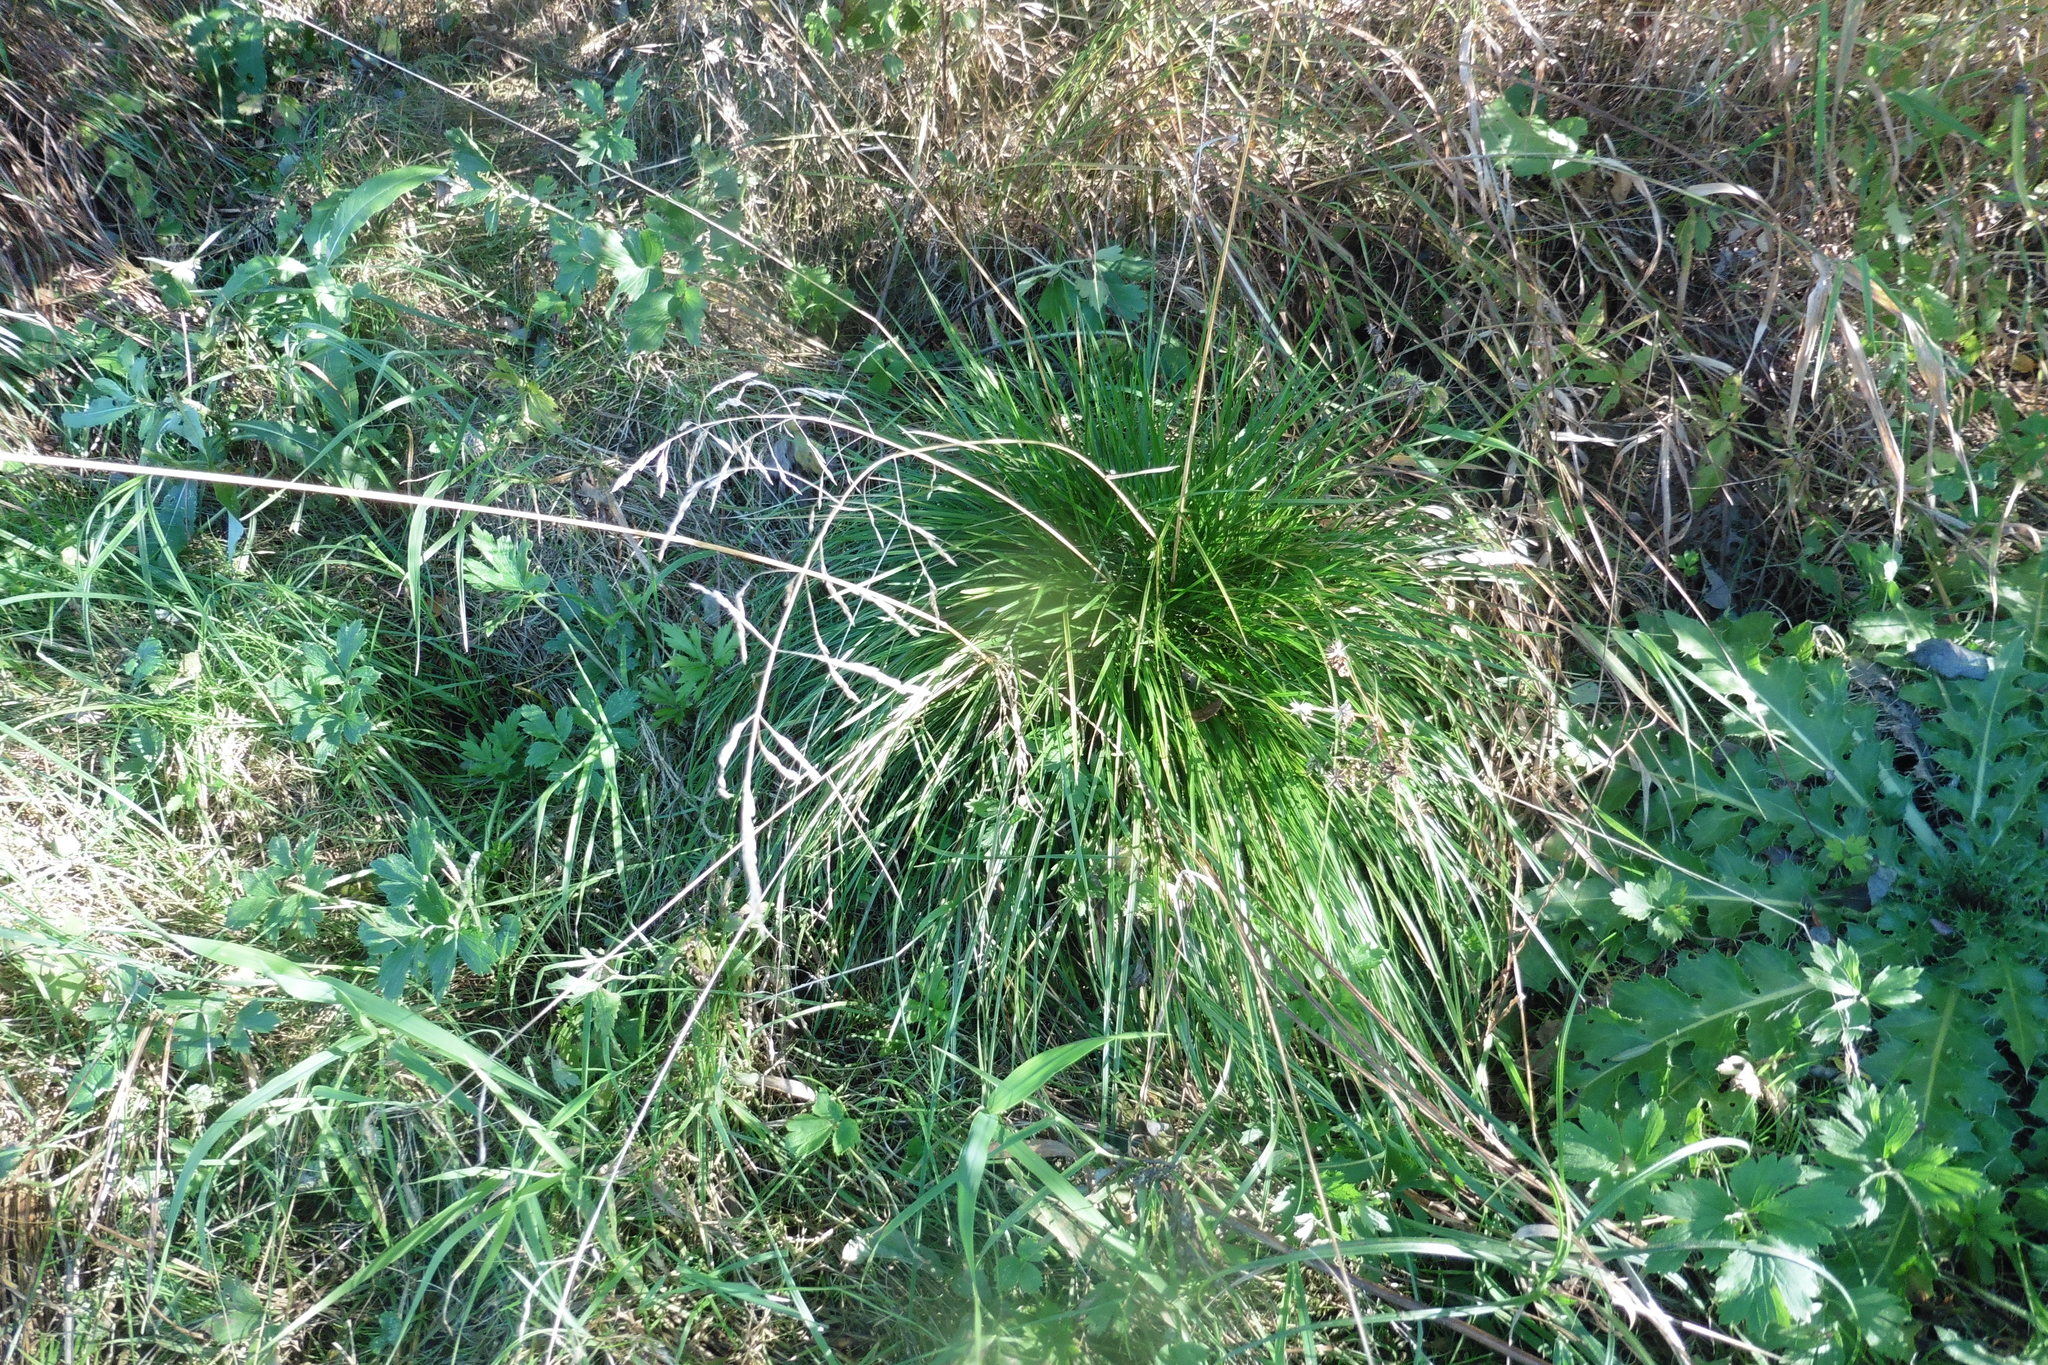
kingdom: Plantae
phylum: Tracheophyta
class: Liliopsida
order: Poales
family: Poaceae
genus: Deschampsia
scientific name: Deschampsia cespitosa
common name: Tufted hair-grass
